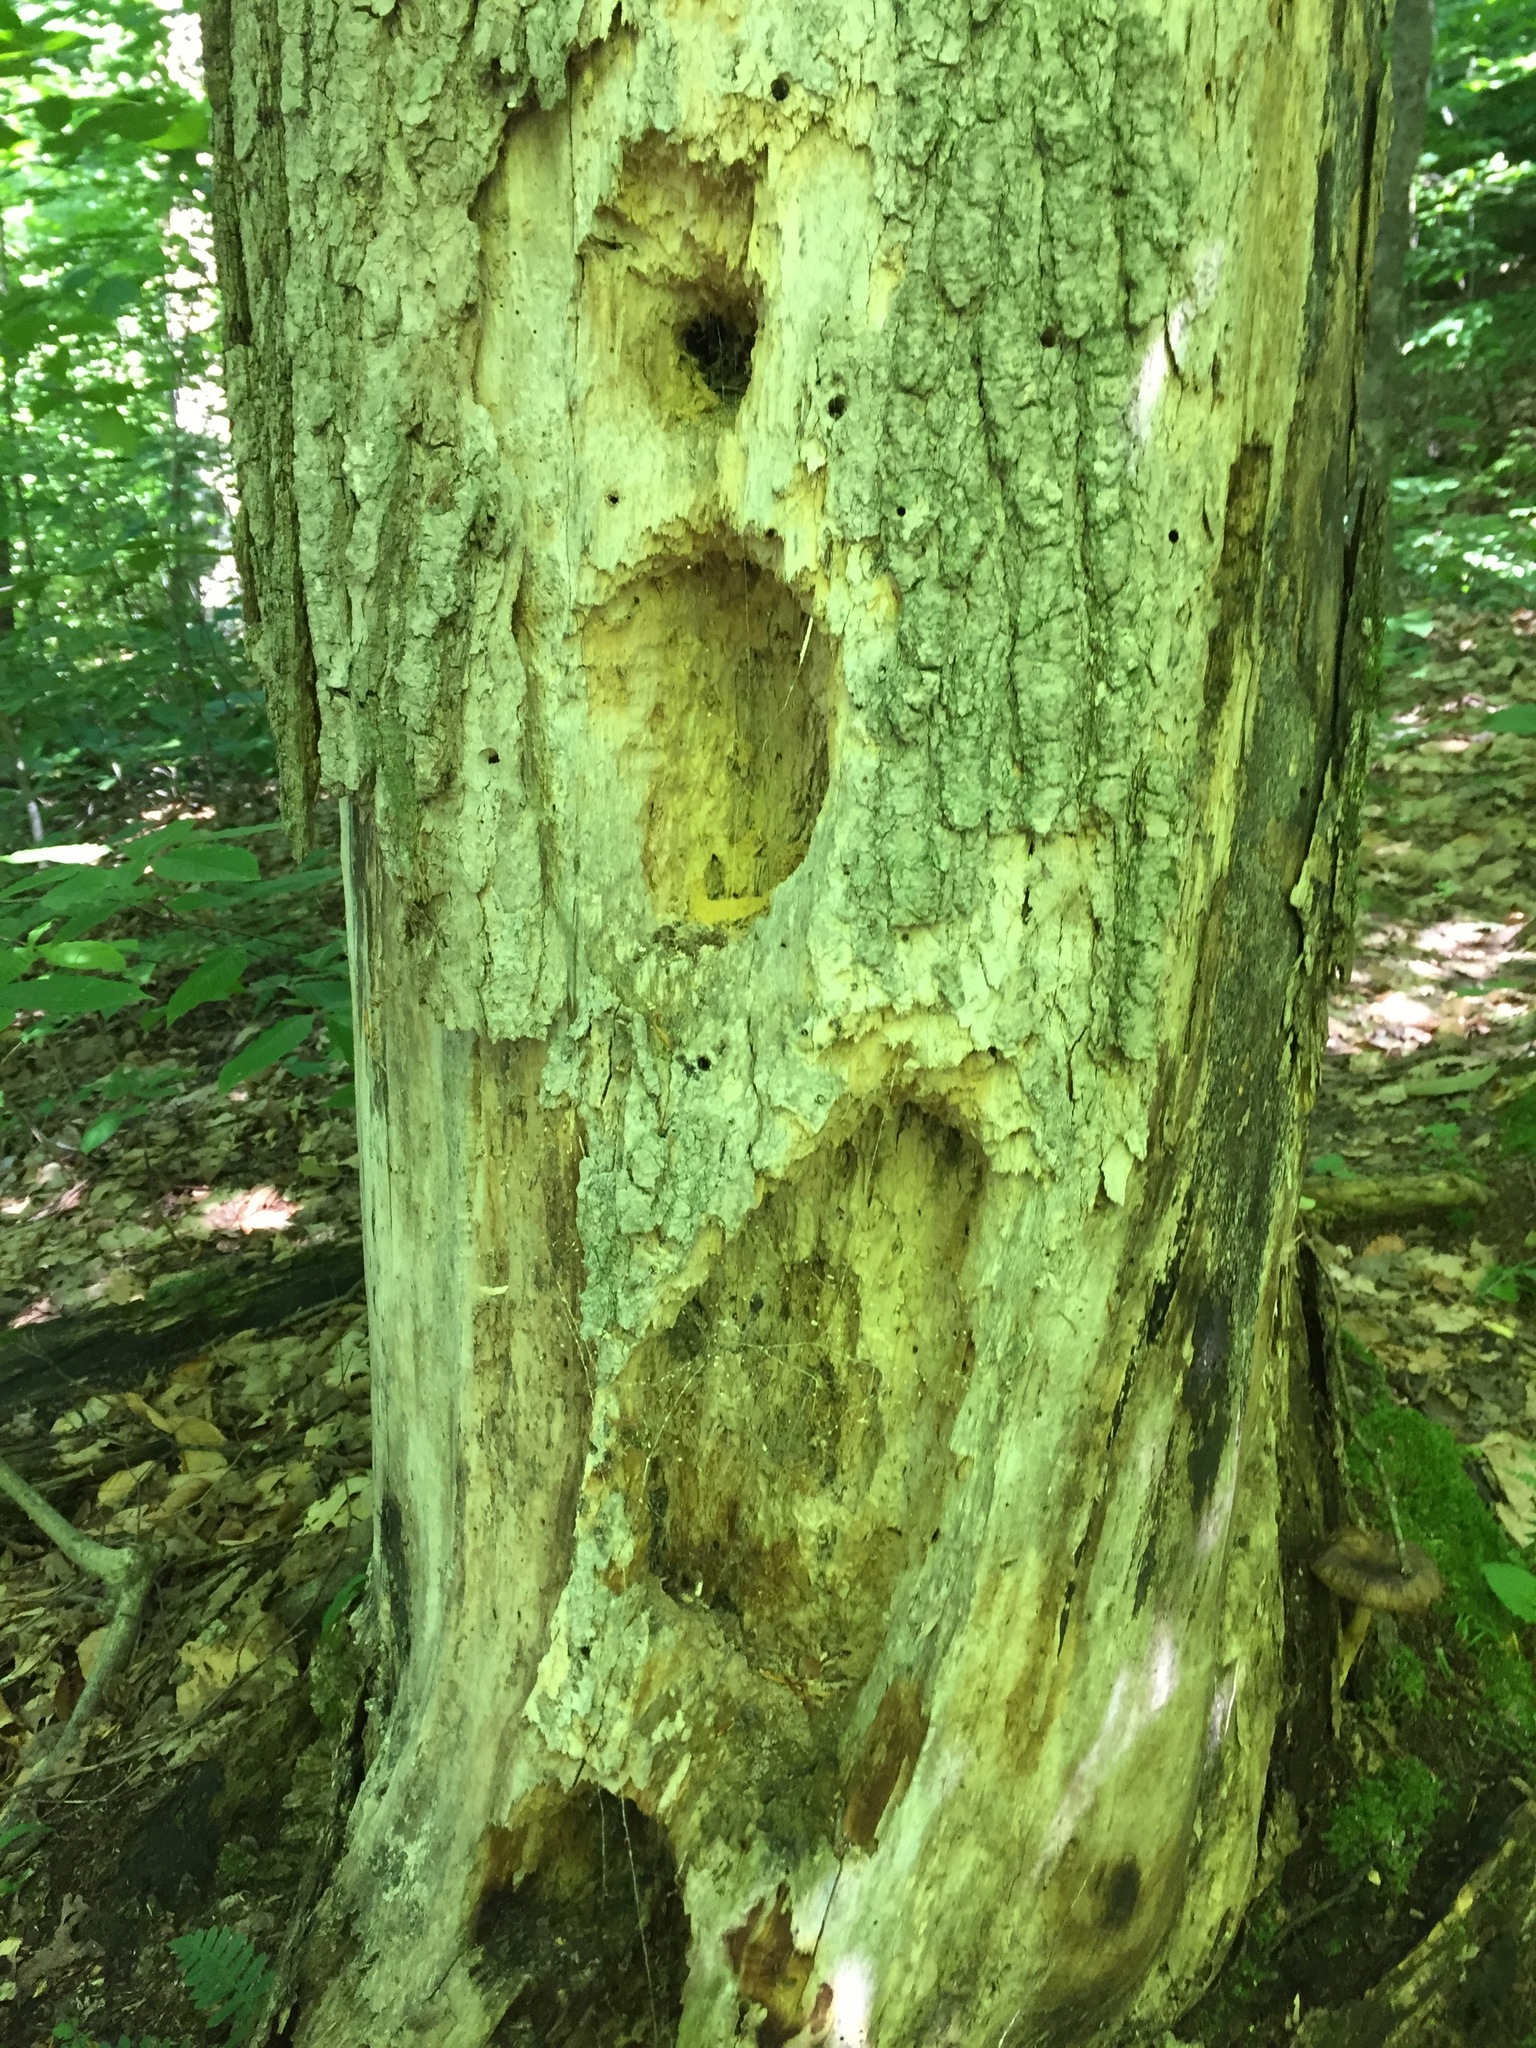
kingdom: Animalia
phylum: Chordata
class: Aves
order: Piciformes
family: Picidae
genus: Dryocopus
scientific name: Dryocopus pileatus
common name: Pileated woodpecker
